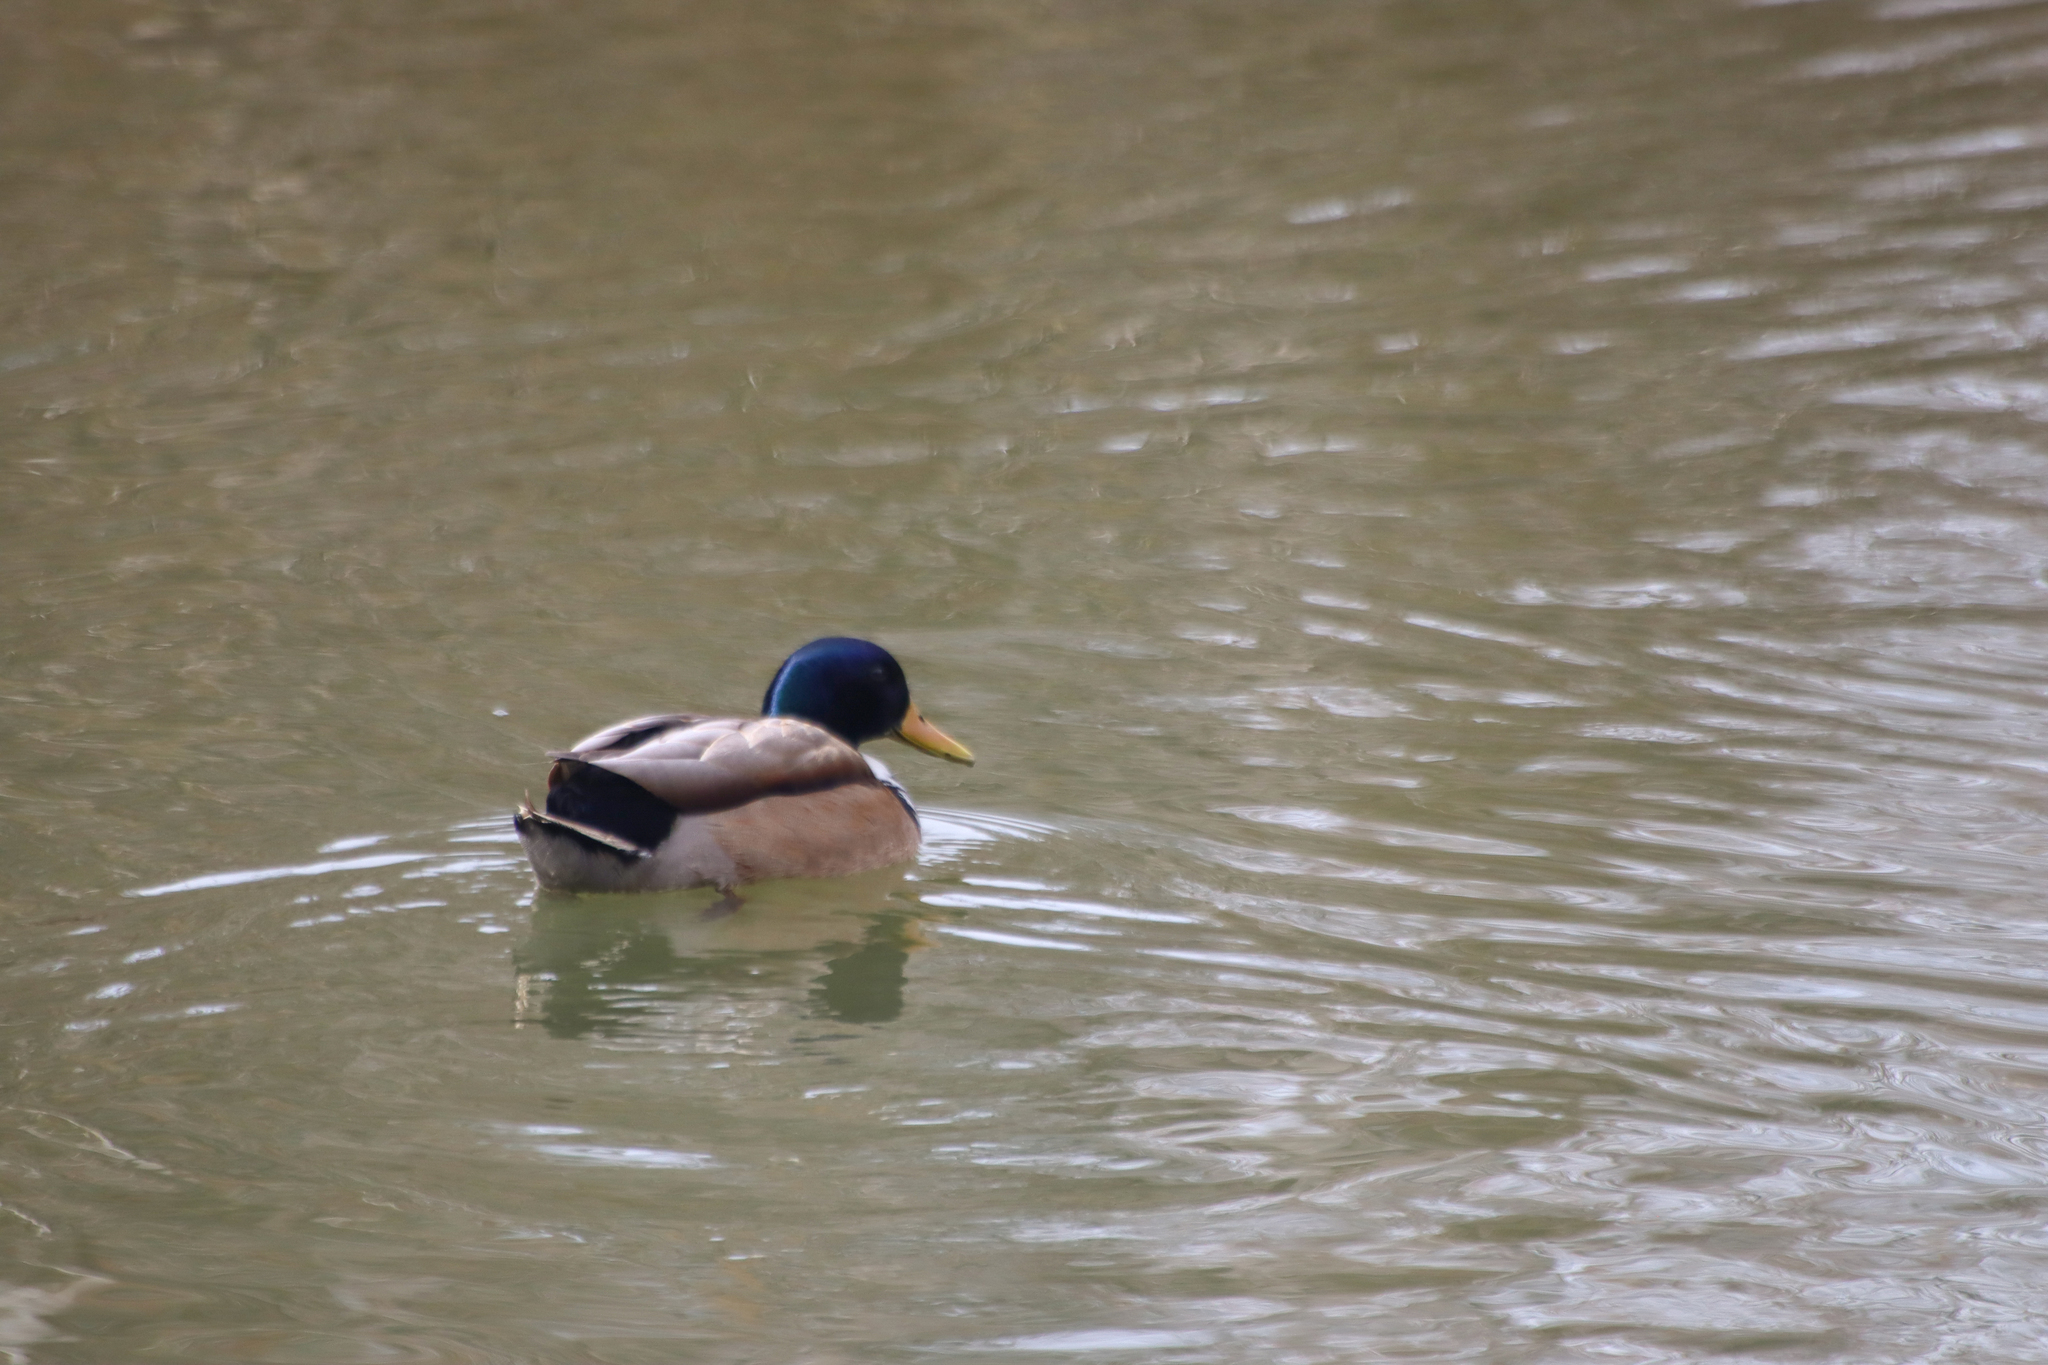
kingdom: Animalia
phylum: Chordata
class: Aves
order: Anseriformes
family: Anatidae
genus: Anas
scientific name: Anas platyrhynchos
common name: Mallard
